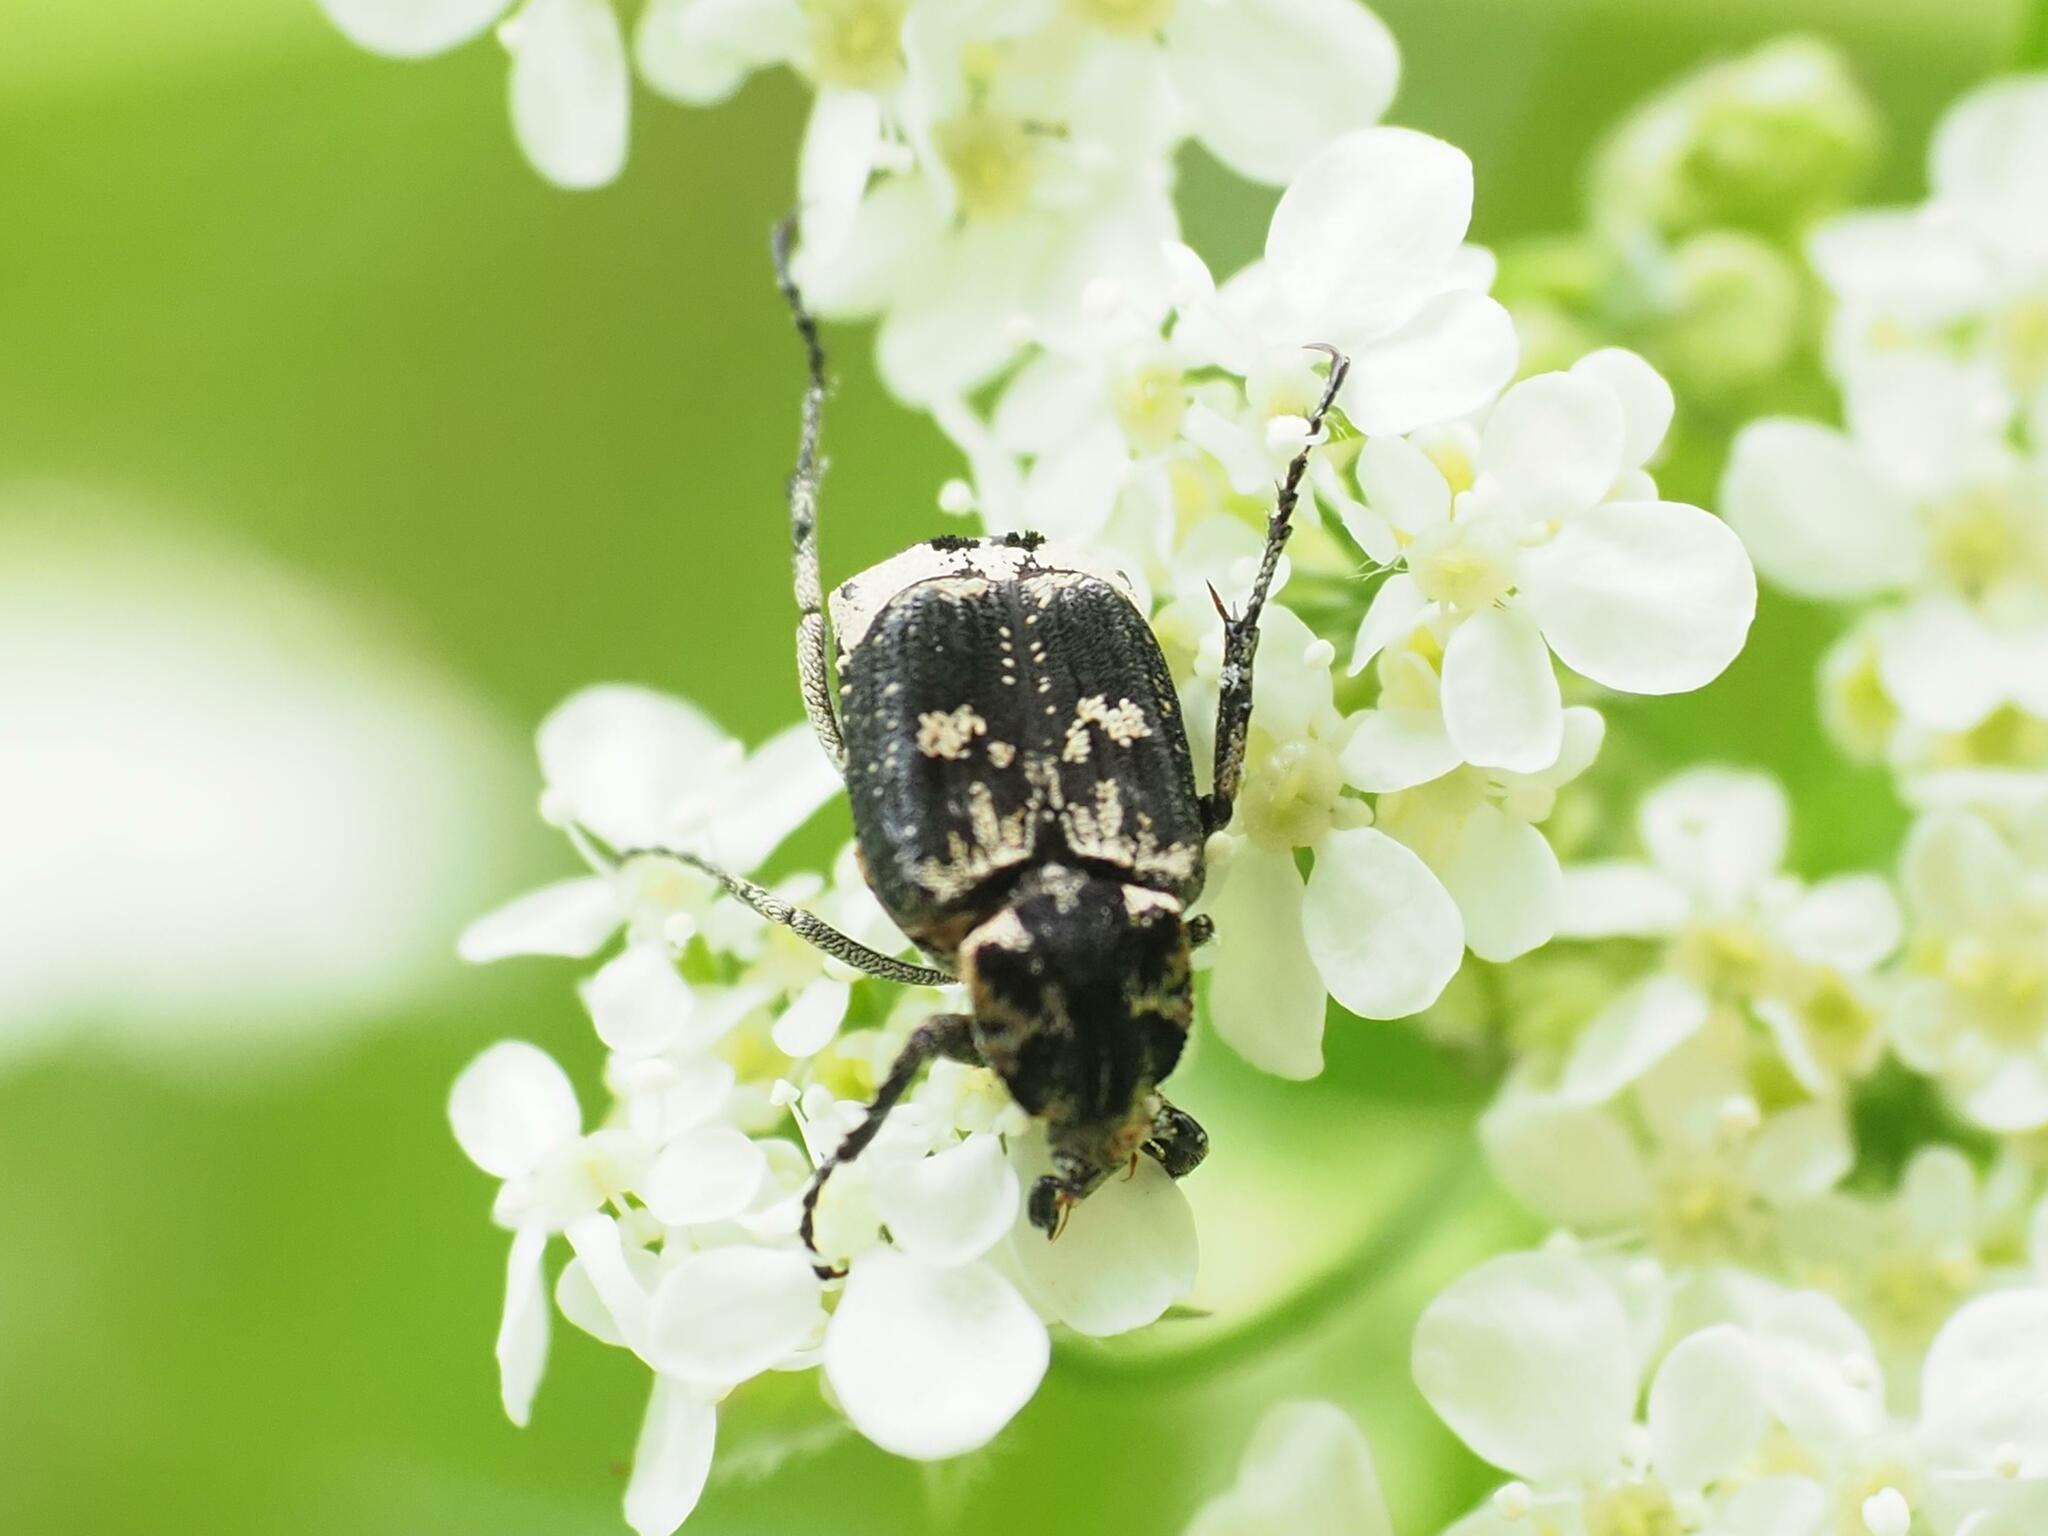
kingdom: Animalia
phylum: Arthropoda
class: Insecta
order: Coleoptera
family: Scarabaeidae
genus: Valgus
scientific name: Valgus hemipterus
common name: Bug flower chafer
